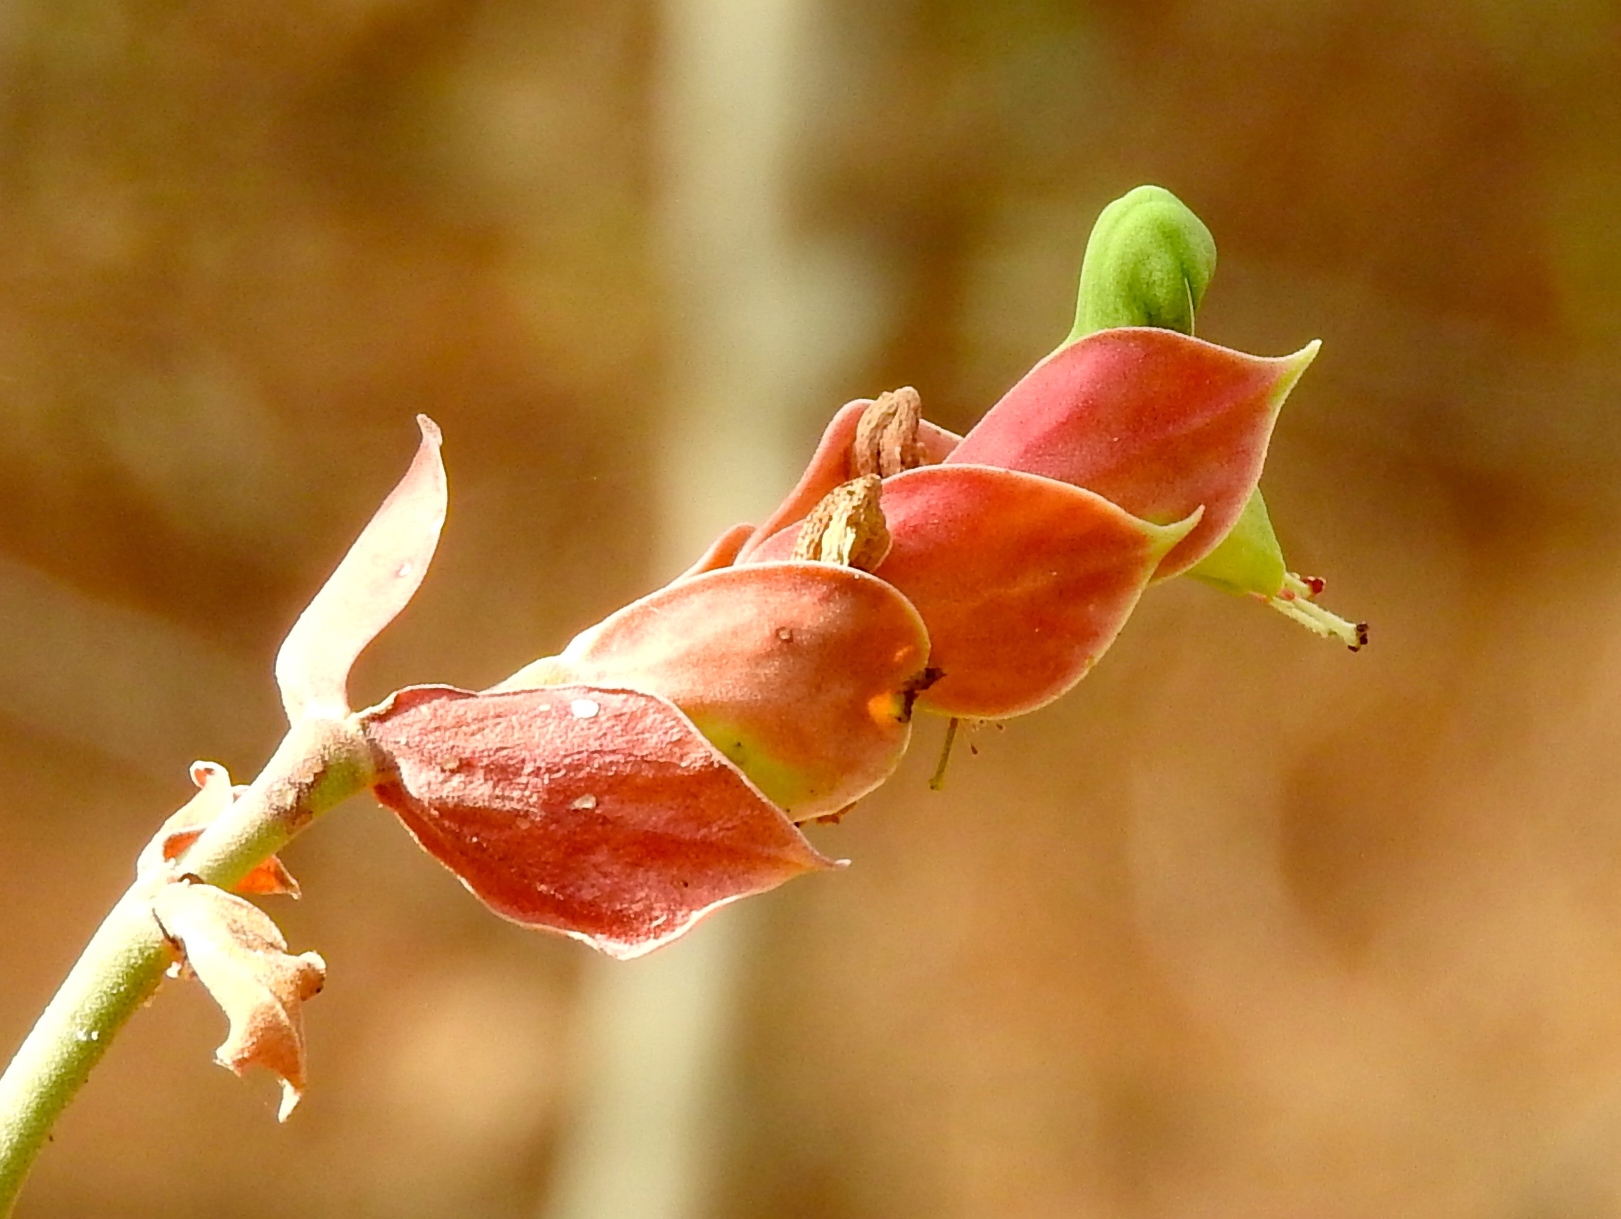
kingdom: Plantae
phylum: Tracheophyta
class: Magnoliopsida
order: Malpighiales
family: Euphorbiaceae
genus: Euphorbia
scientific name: Euphorbia bracteata
